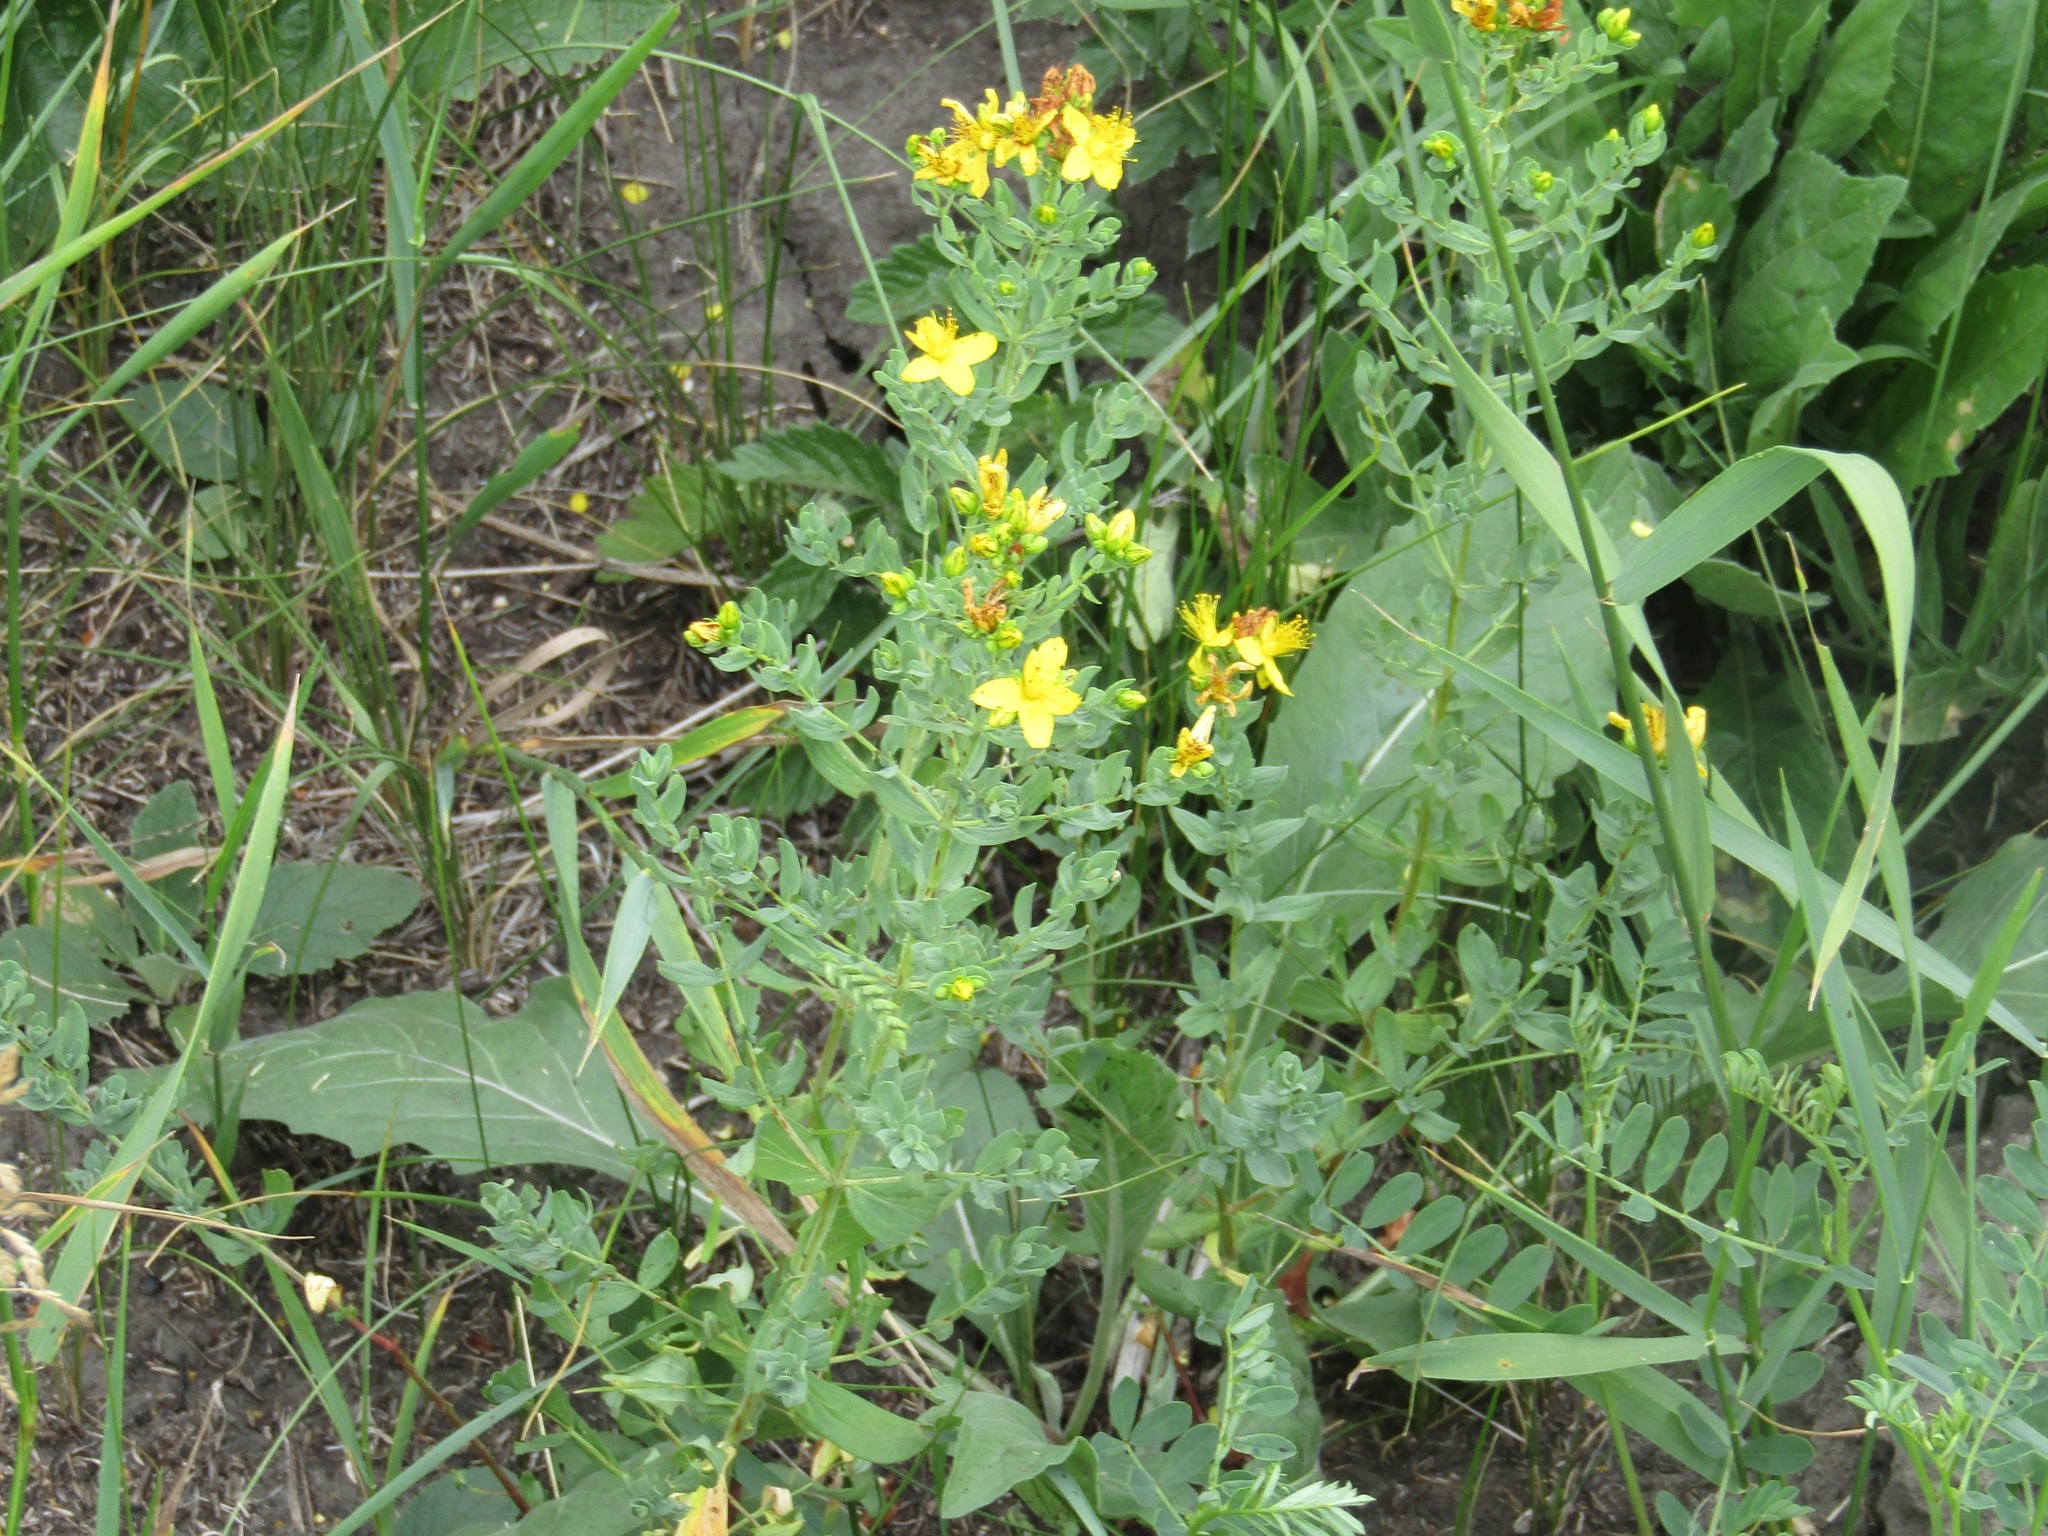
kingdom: Plantae
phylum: Tracheophyta
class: Magnoliopsida
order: Malpighiales
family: Hypericaceae
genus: Hypericum
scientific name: Hypericum perforatum
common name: Common st. johnswort
